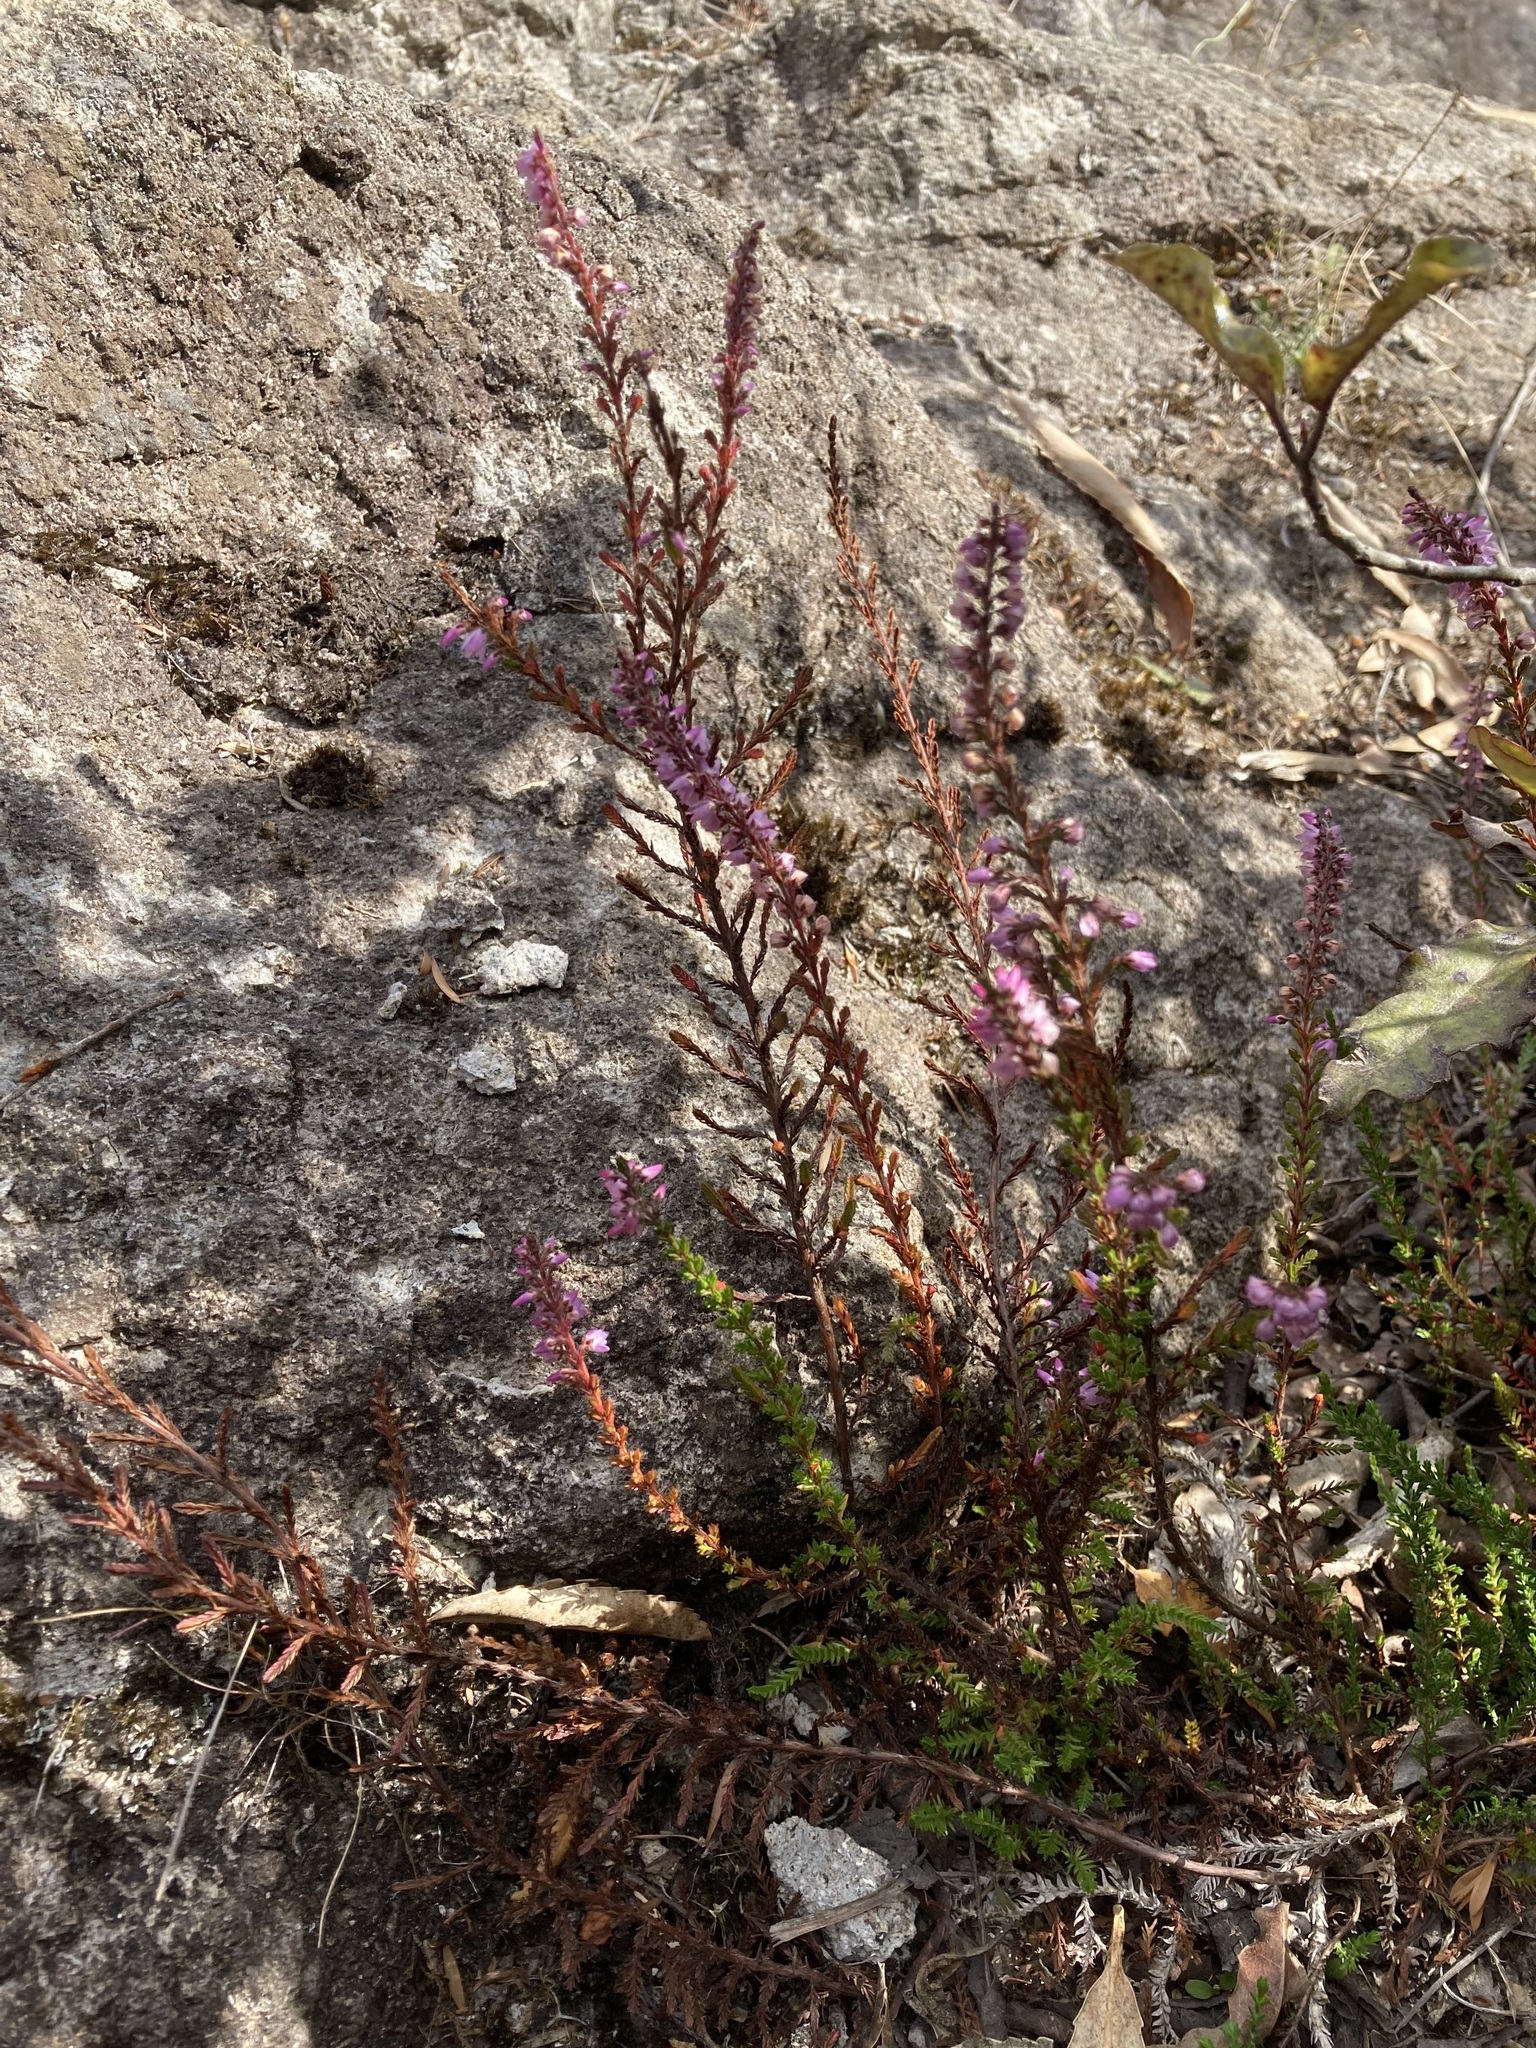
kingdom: Plantae
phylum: Tracheophyta
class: Magnoliopsida
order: Ericales
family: Ericaceae
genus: Calluna
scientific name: Calluna vulgaris
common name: Heather
